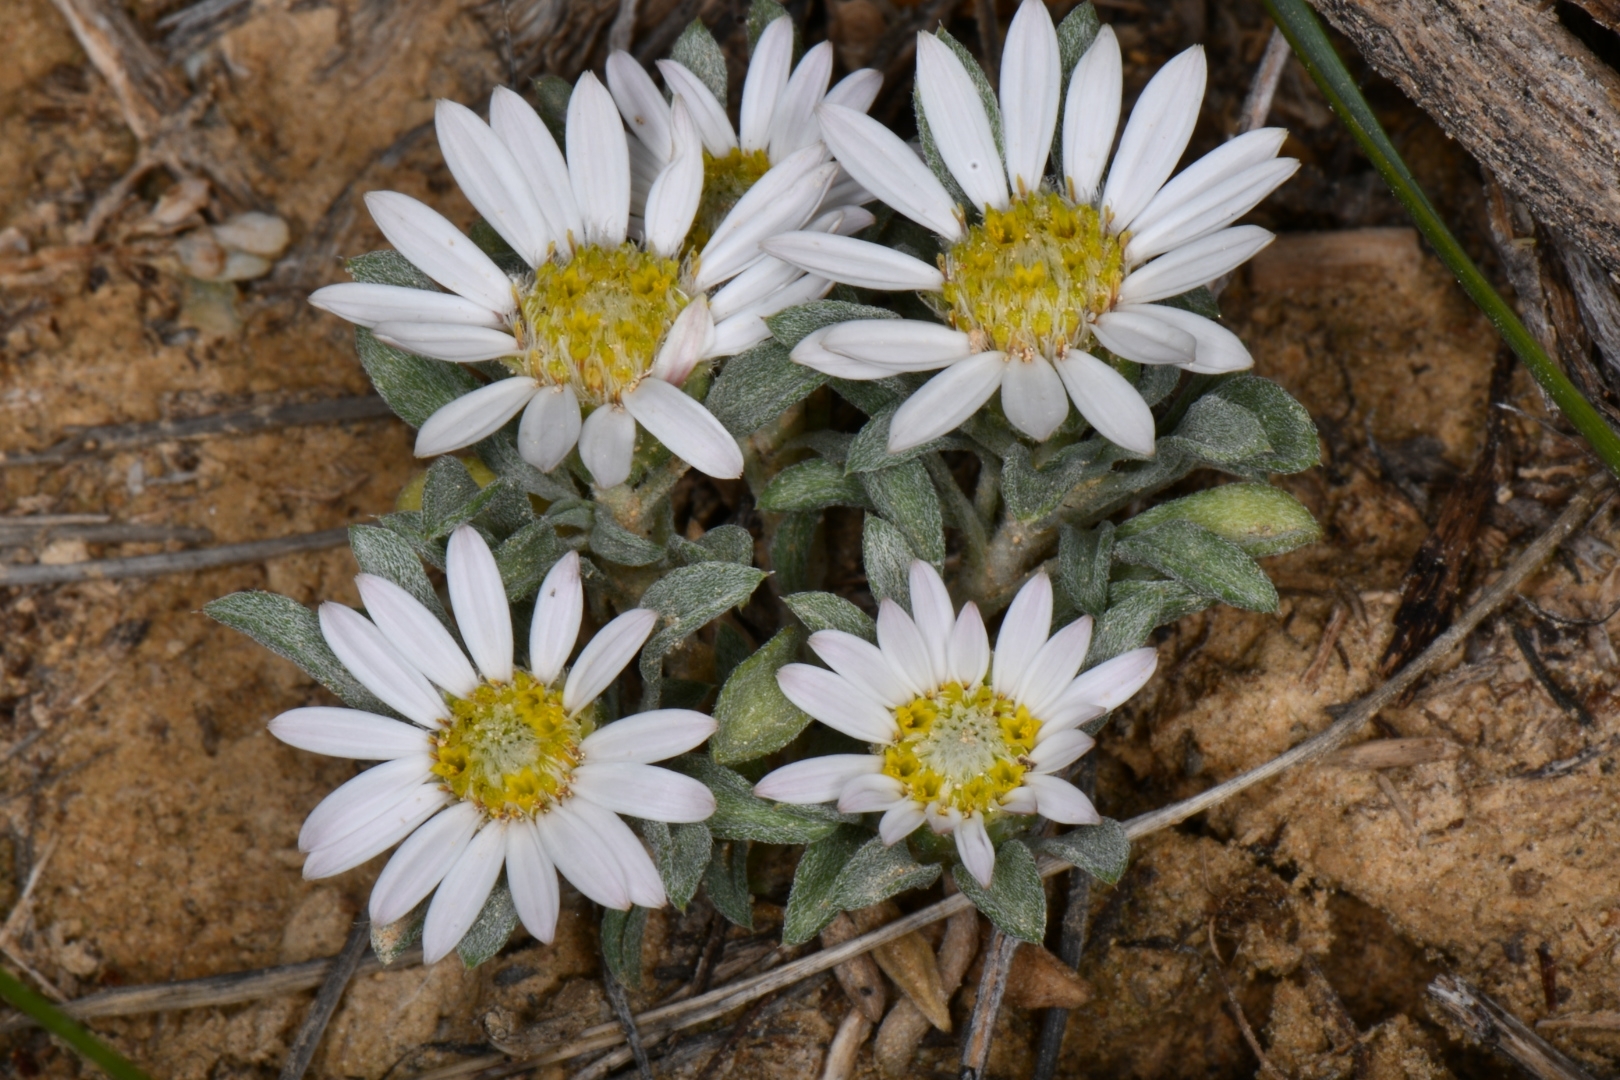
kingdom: Plantae
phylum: Tracheophyta
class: Magnoliopsida
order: Asterales
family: Asteraceae
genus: Townsendia
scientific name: Townsendia incana
